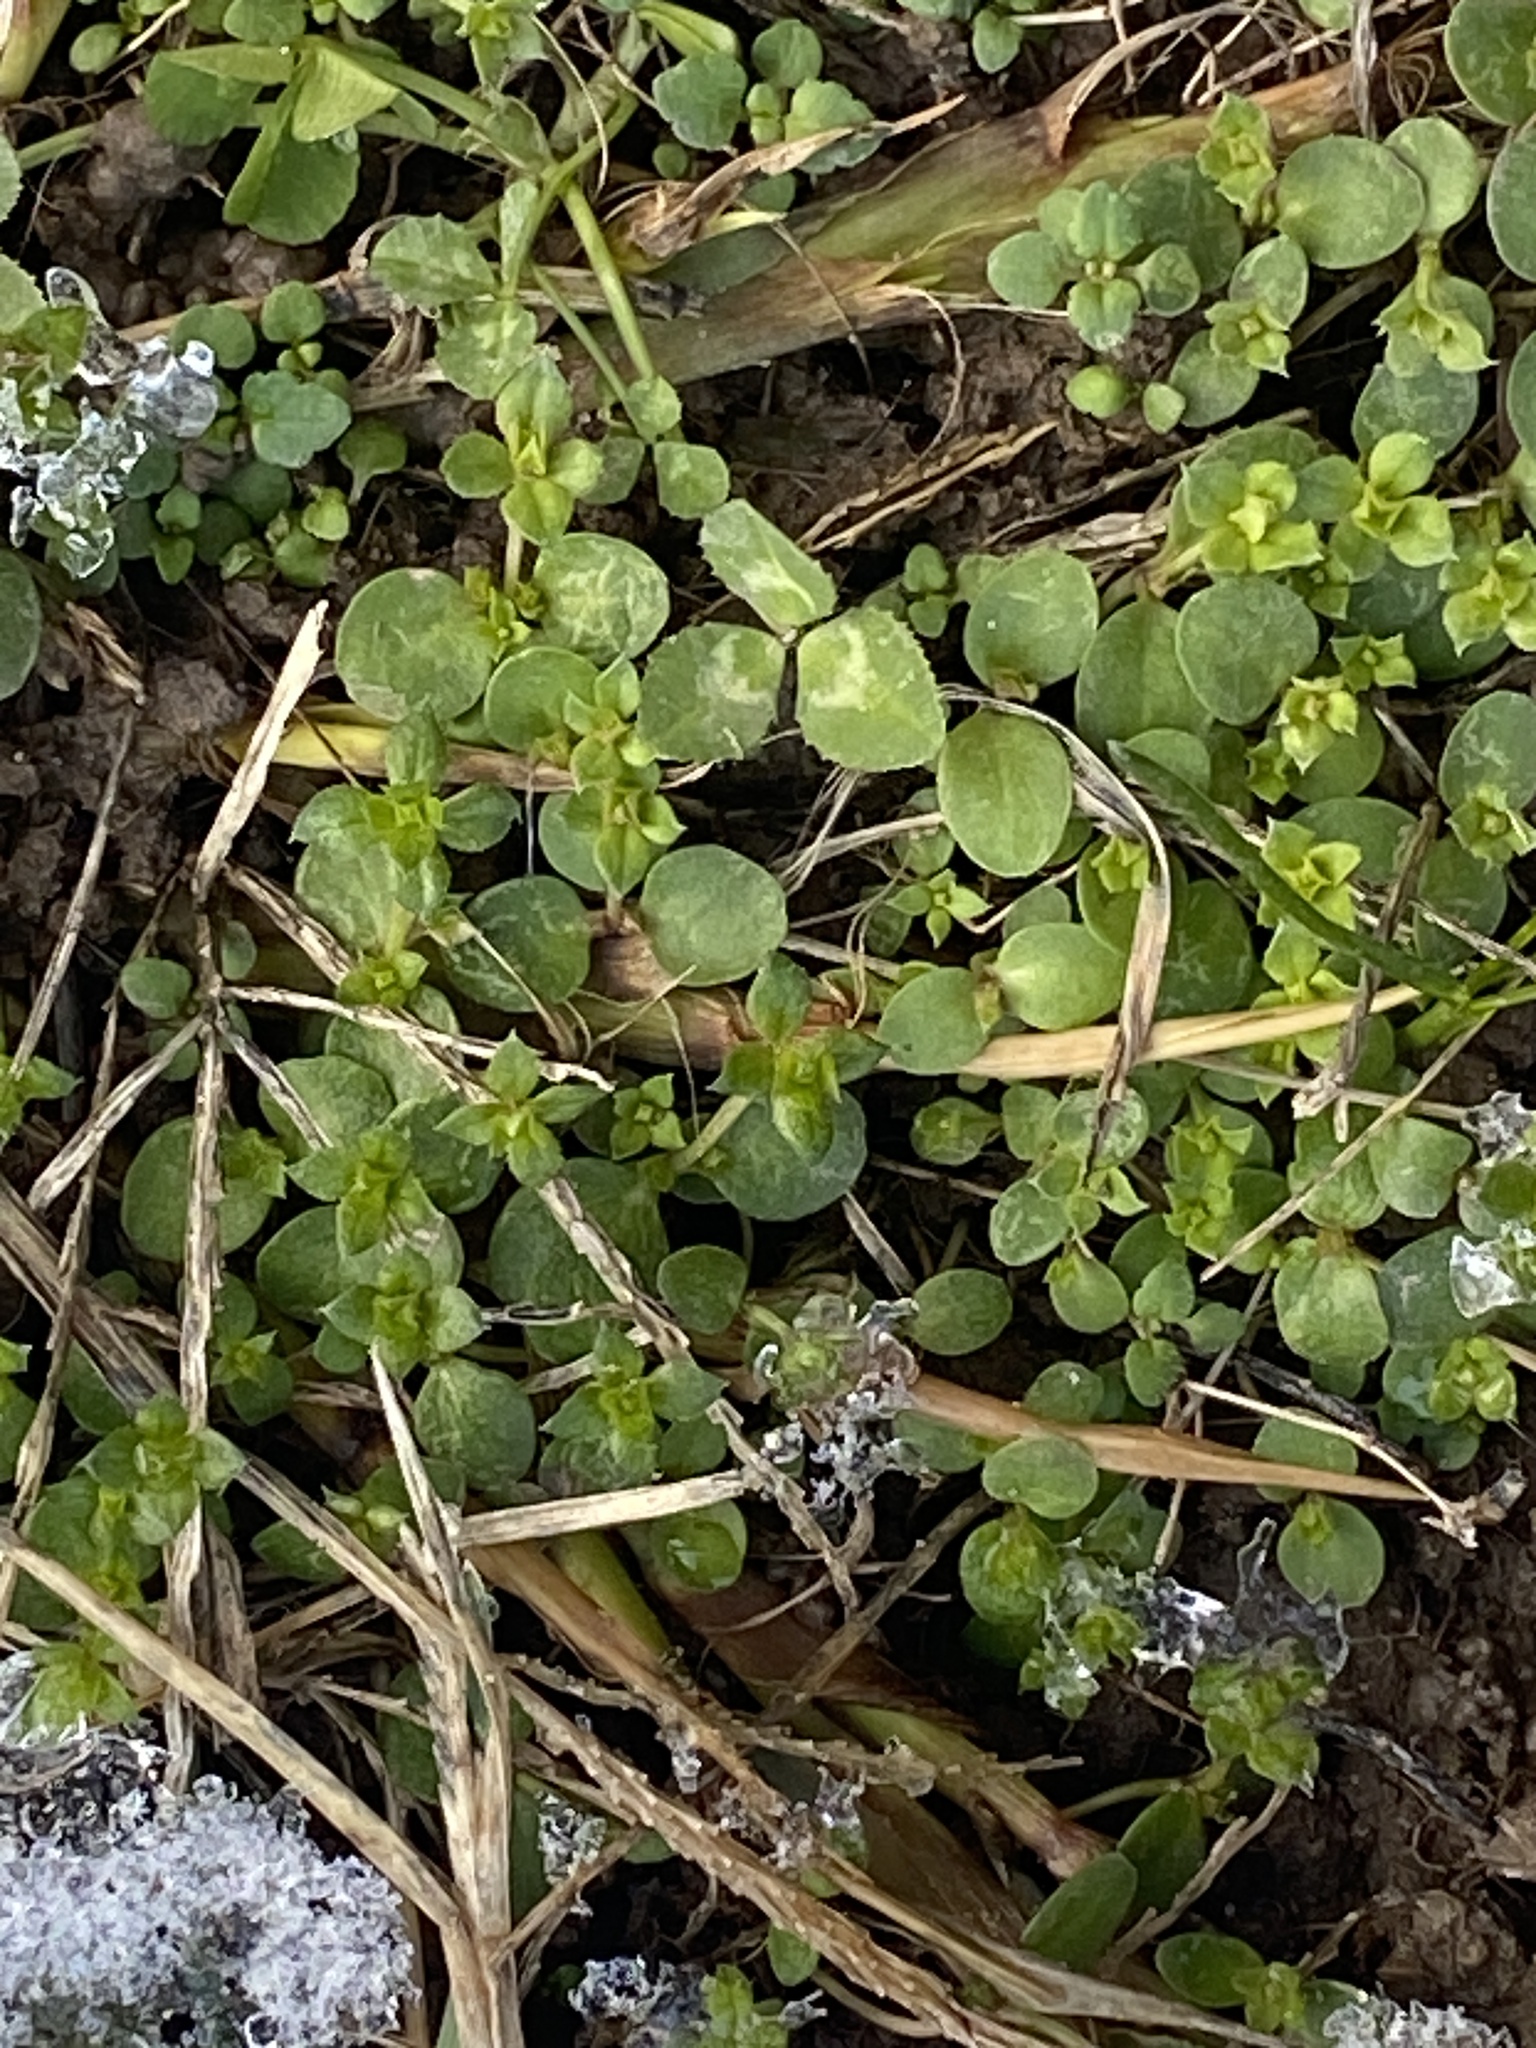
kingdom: Plantae
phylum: Tracheophyta
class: Magnoliopsida
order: Gentianales
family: Rubiaceae
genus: Sherardia
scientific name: Sherardia arvensis
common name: Field madder
